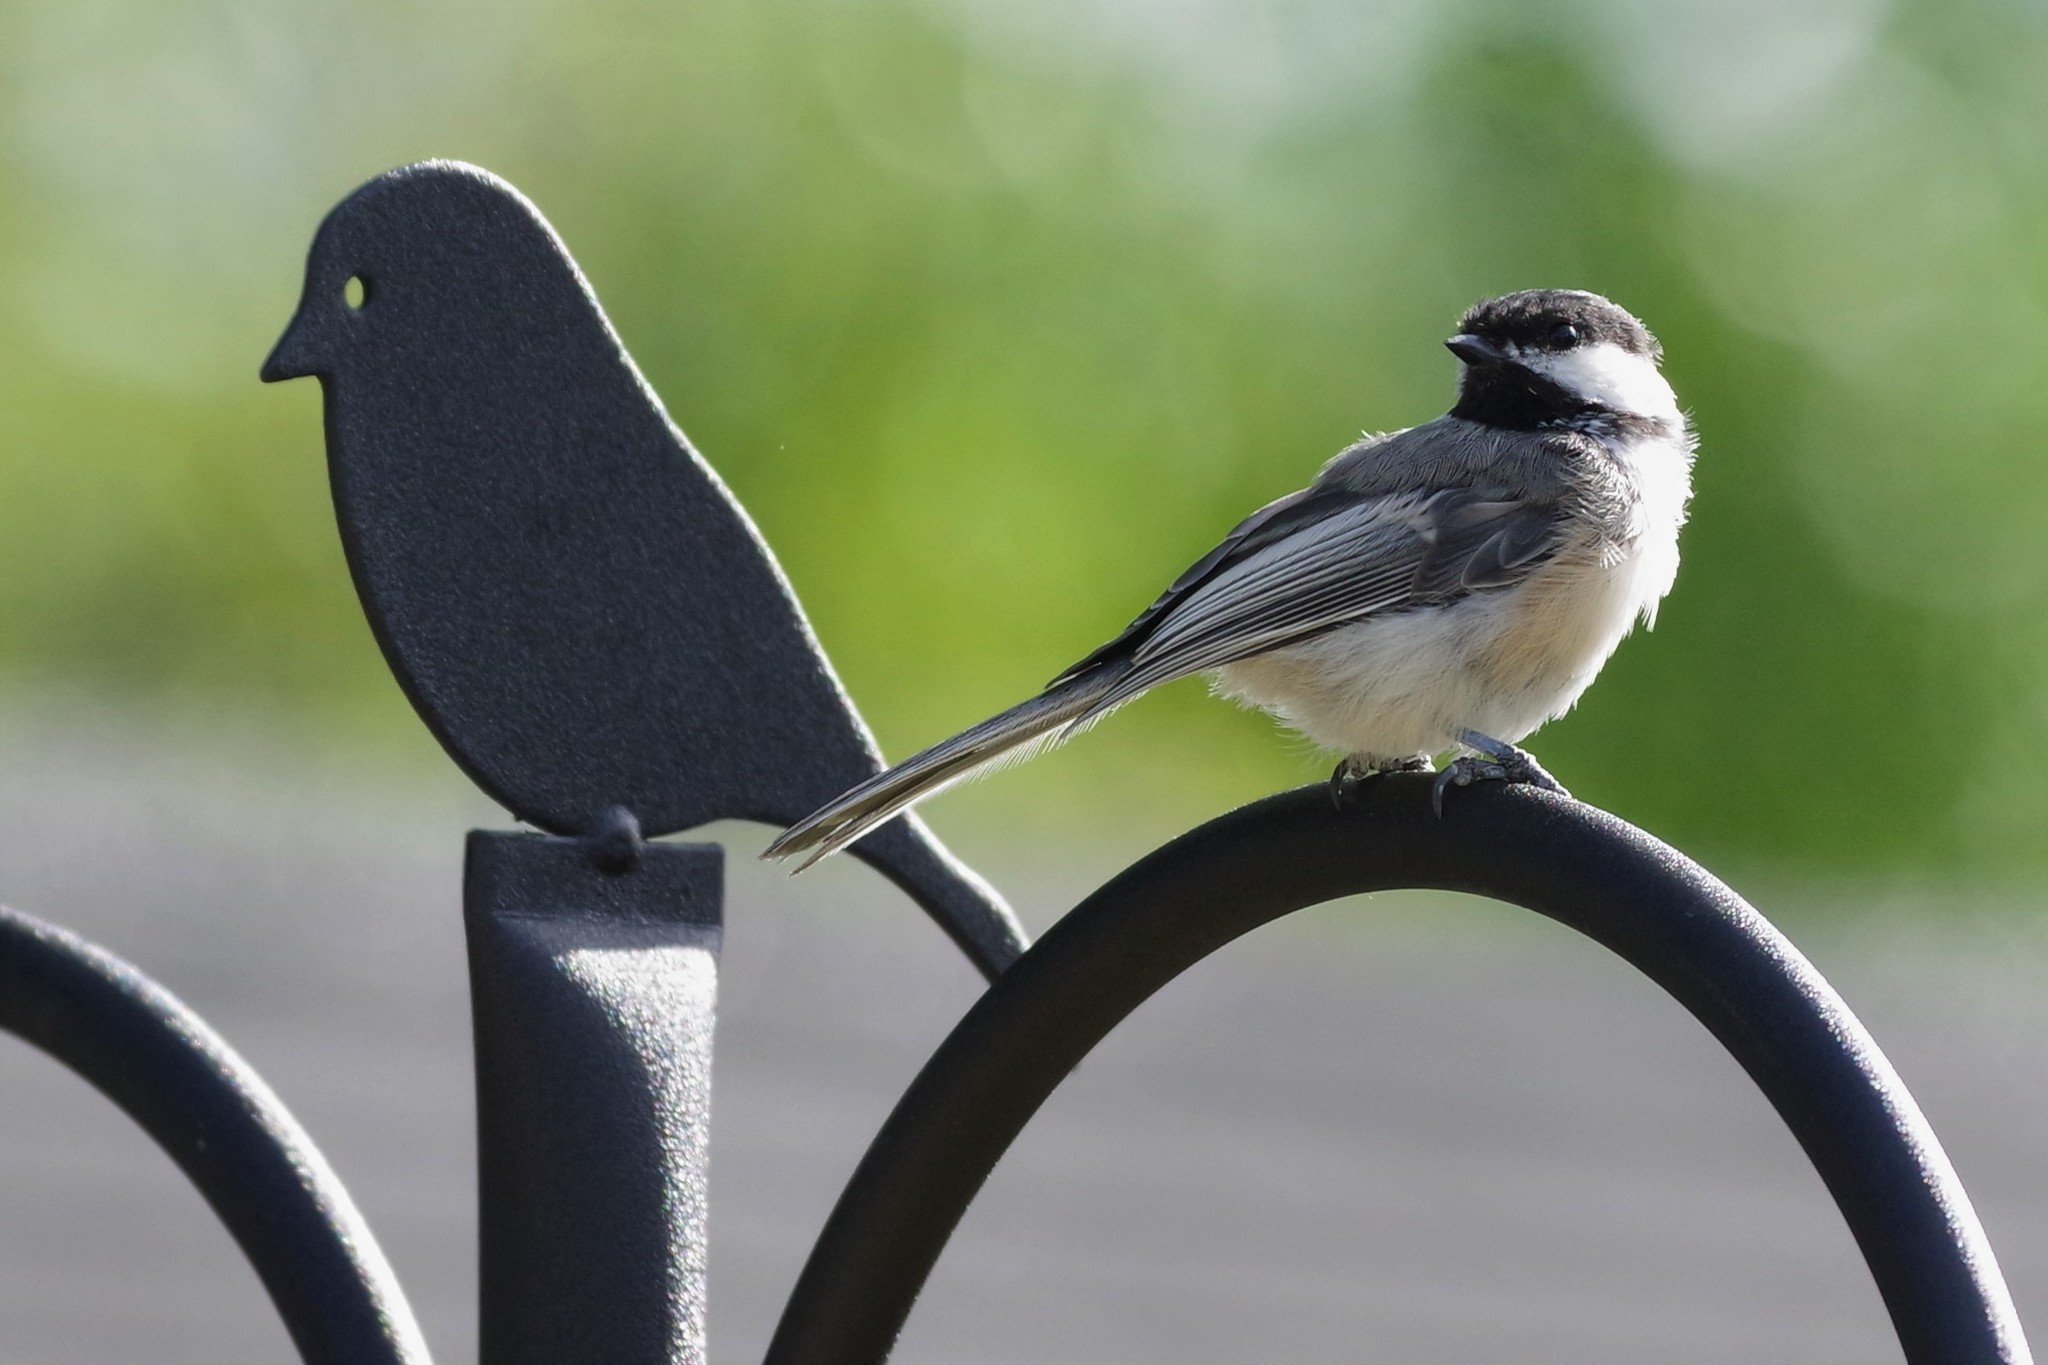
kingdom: Animalia
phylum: Chordata
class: Aves
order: Passeriformes
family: Paridae
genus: Poecile
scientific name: Poecile atricapillus
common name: Black-capped chickadee
